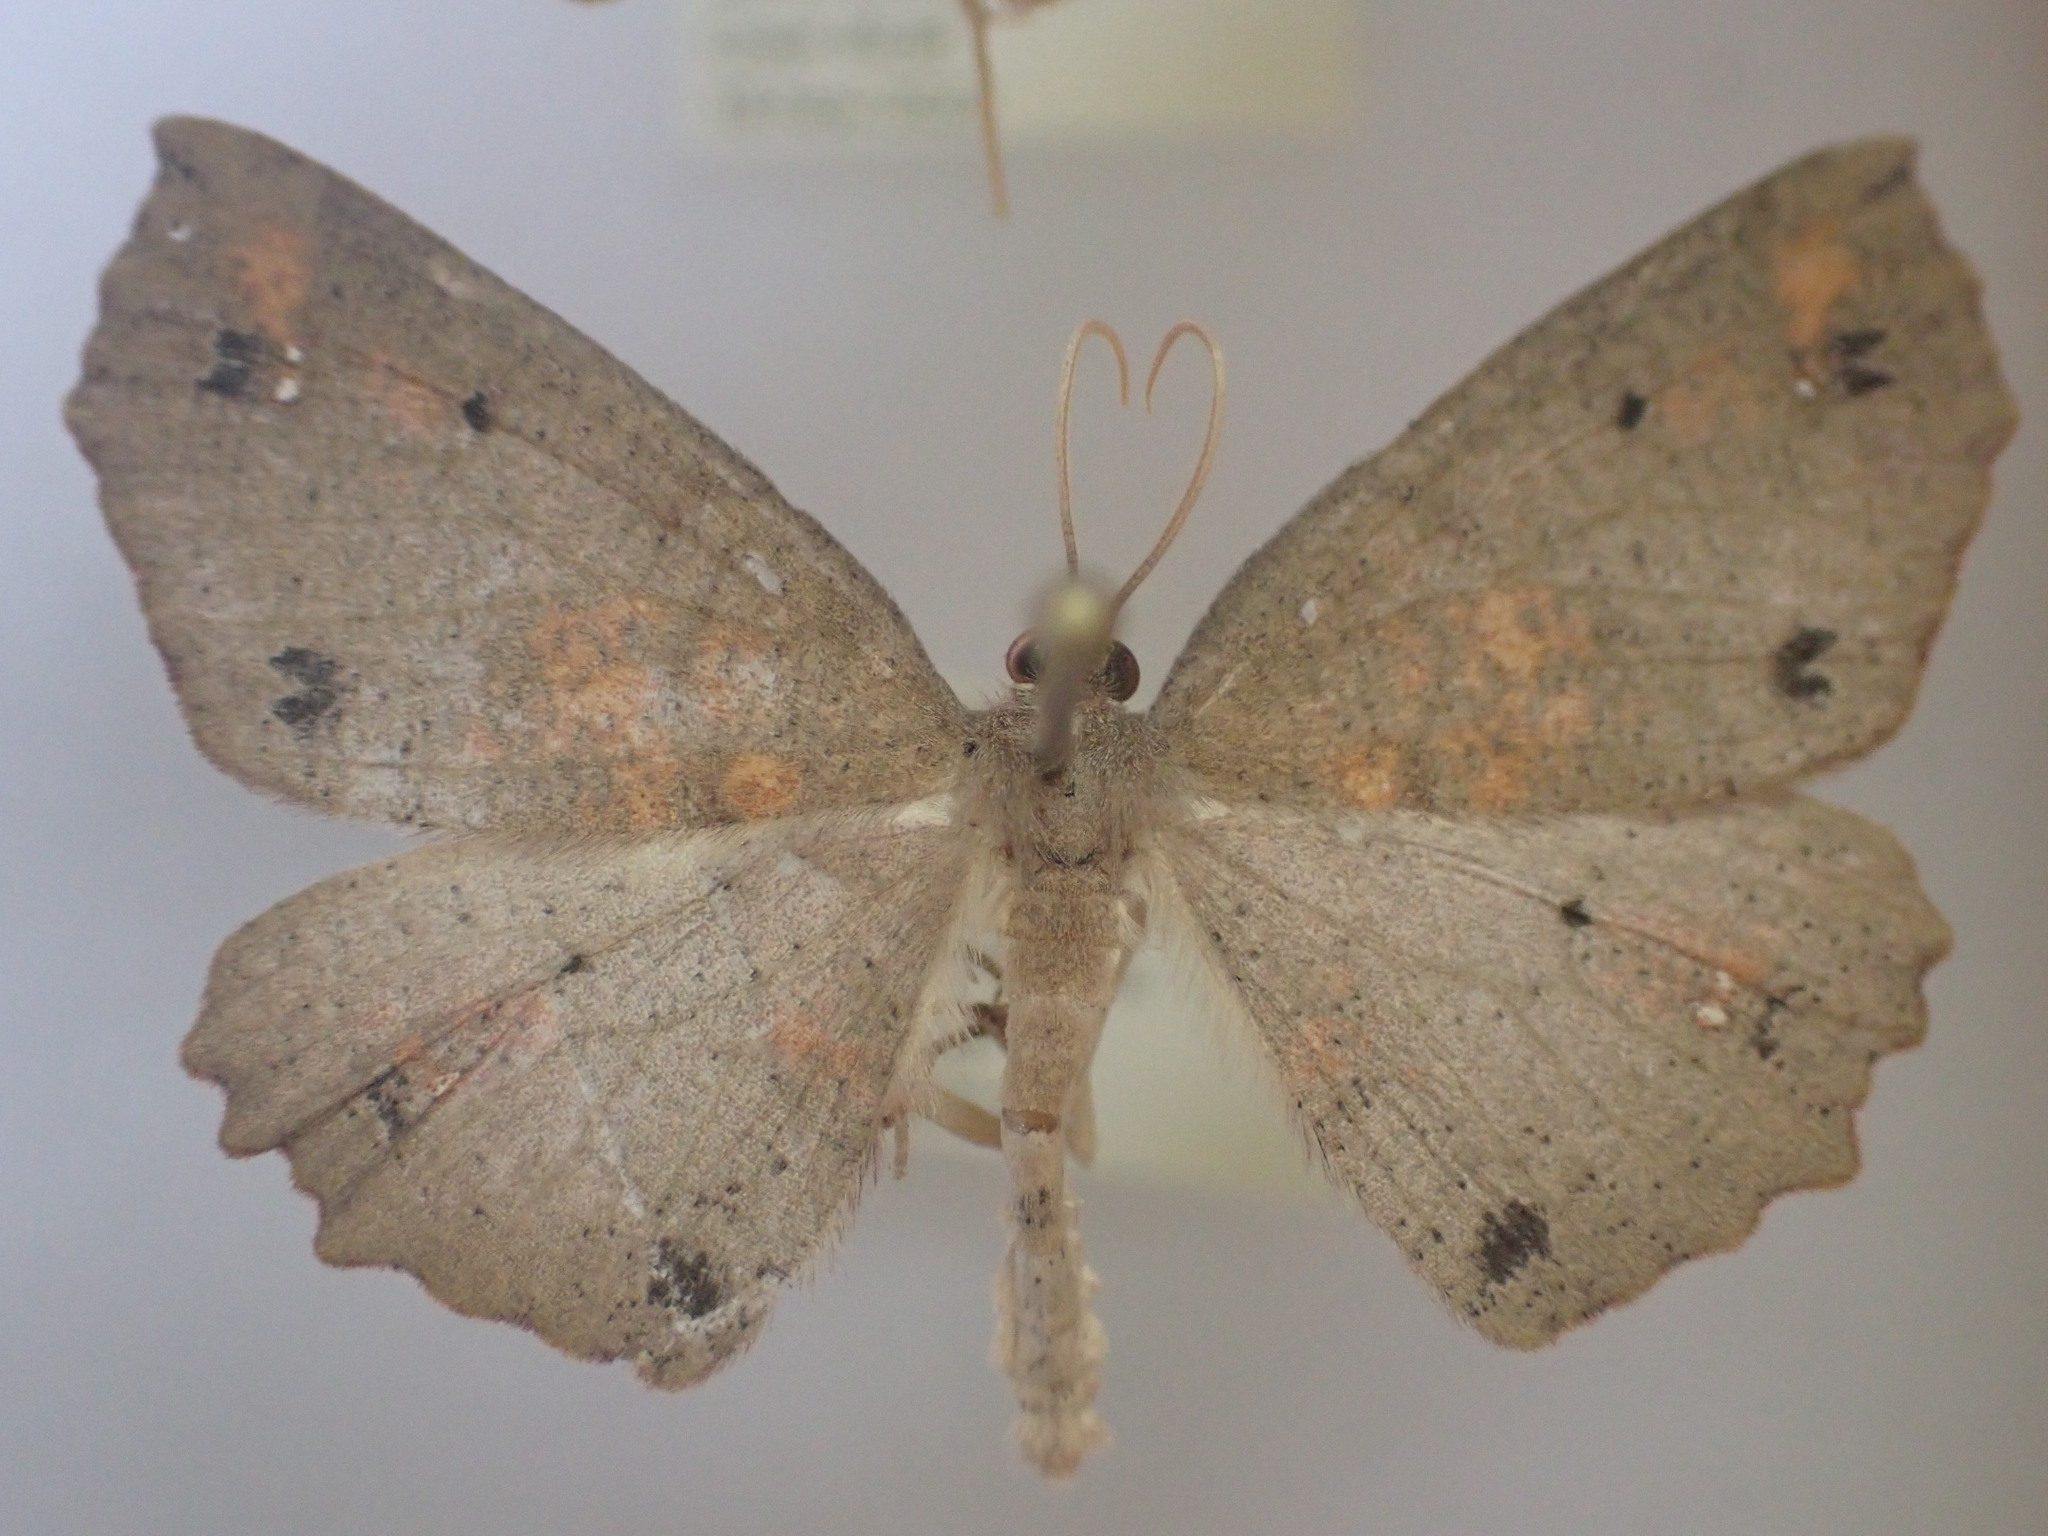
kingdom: Animalia
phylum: Arthropoda
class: Insecta
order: Lepidoptera
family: Geometridae
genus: Xyridacma
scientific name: Xyridacma ustaria
